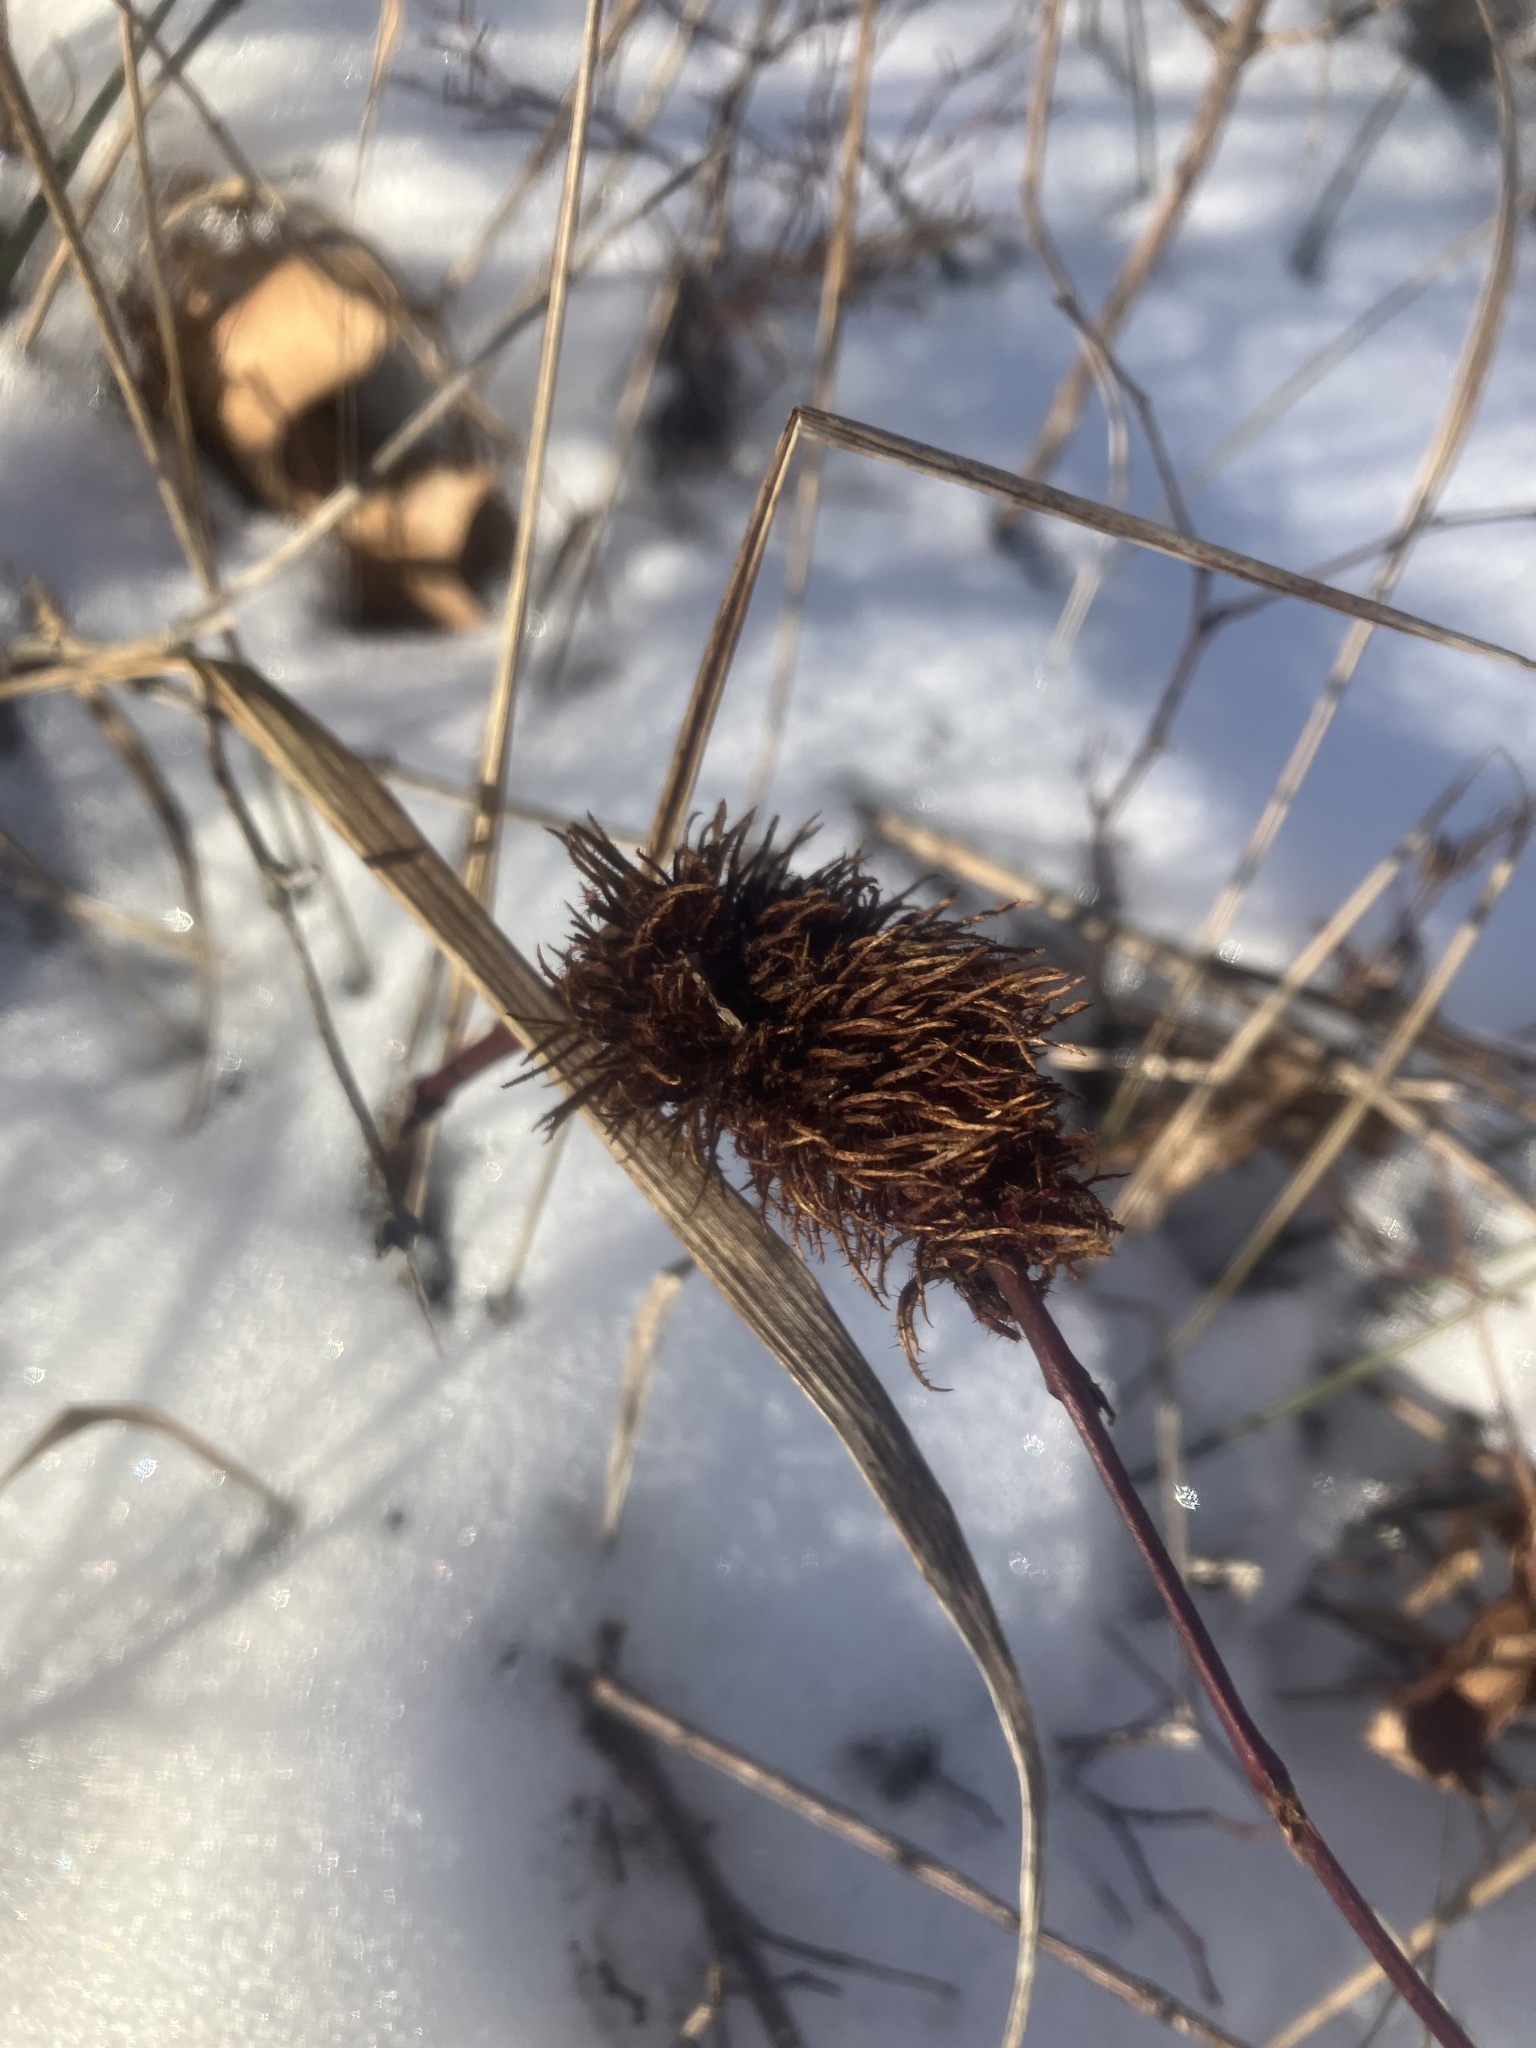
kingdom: Animalia
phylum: Arthropoda
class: Insecta
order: Hymenoptera
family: Cynipidae
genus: Diastrophus
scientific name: Diastrophus
